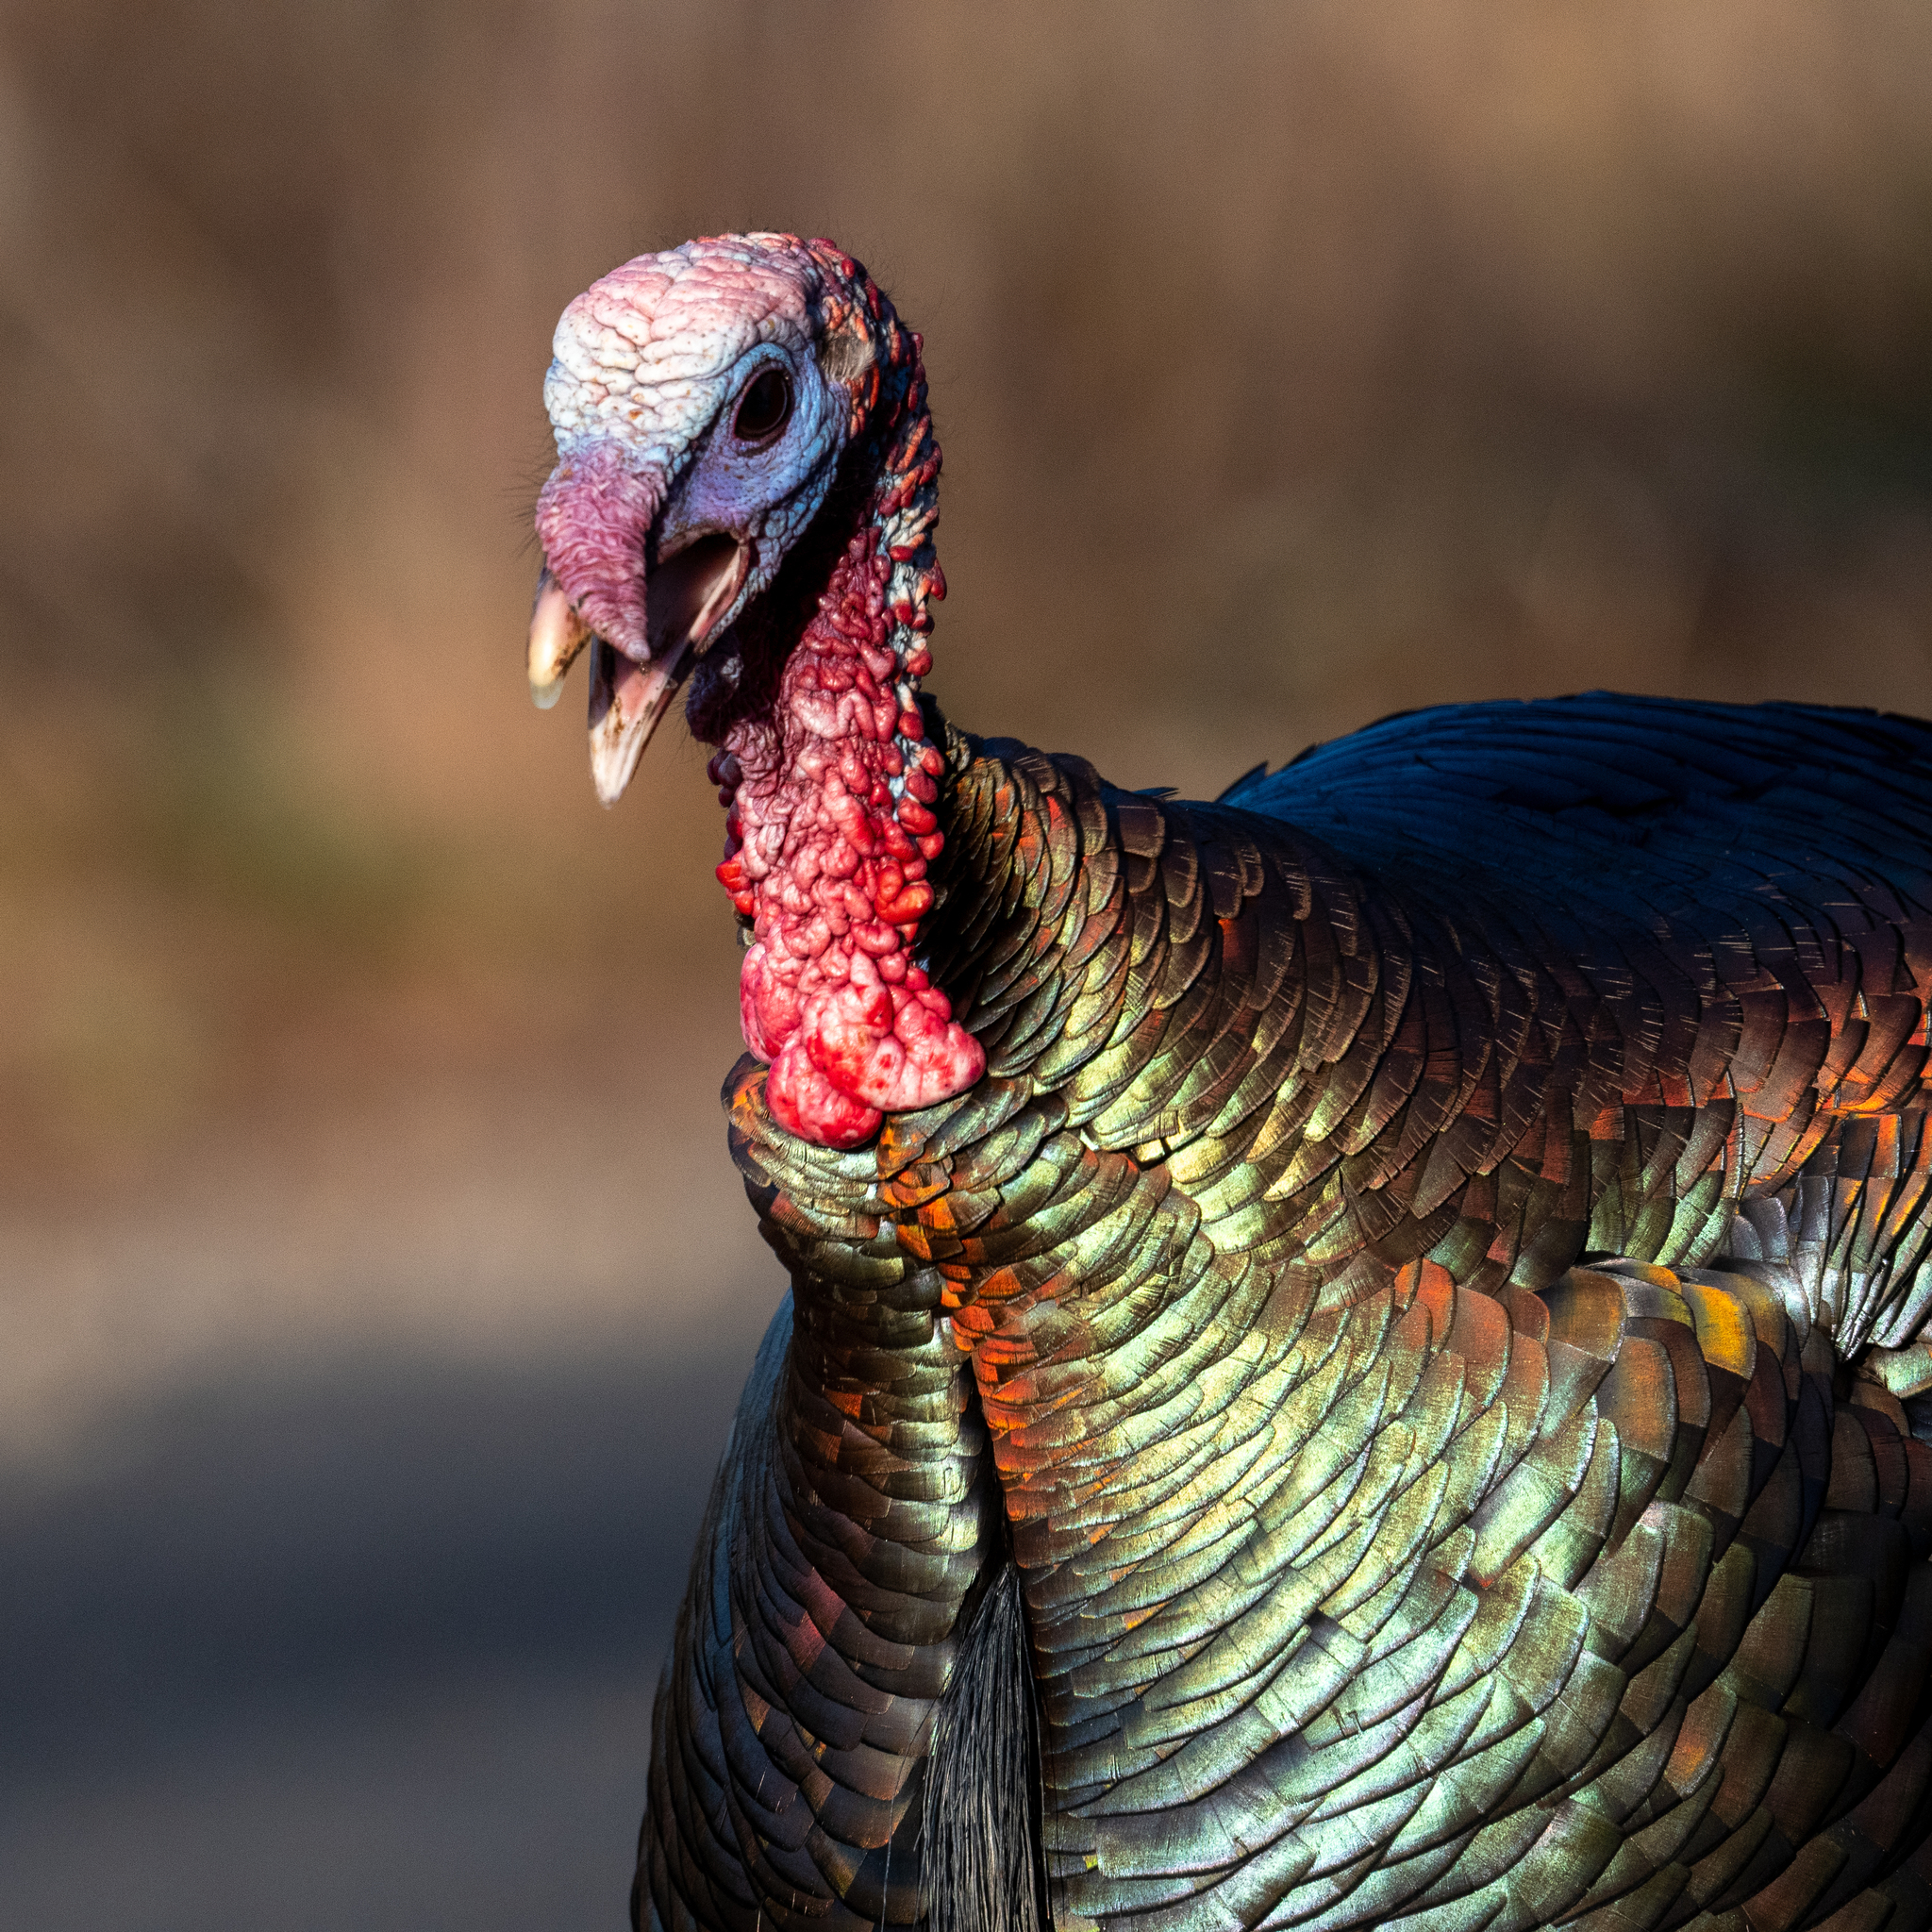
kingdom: Animalia
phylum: Chordata
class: Aves
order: Galliformes
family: Phasianidae
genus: Meleagris
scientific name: Meleagris gallopavo
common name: Wild turkey
